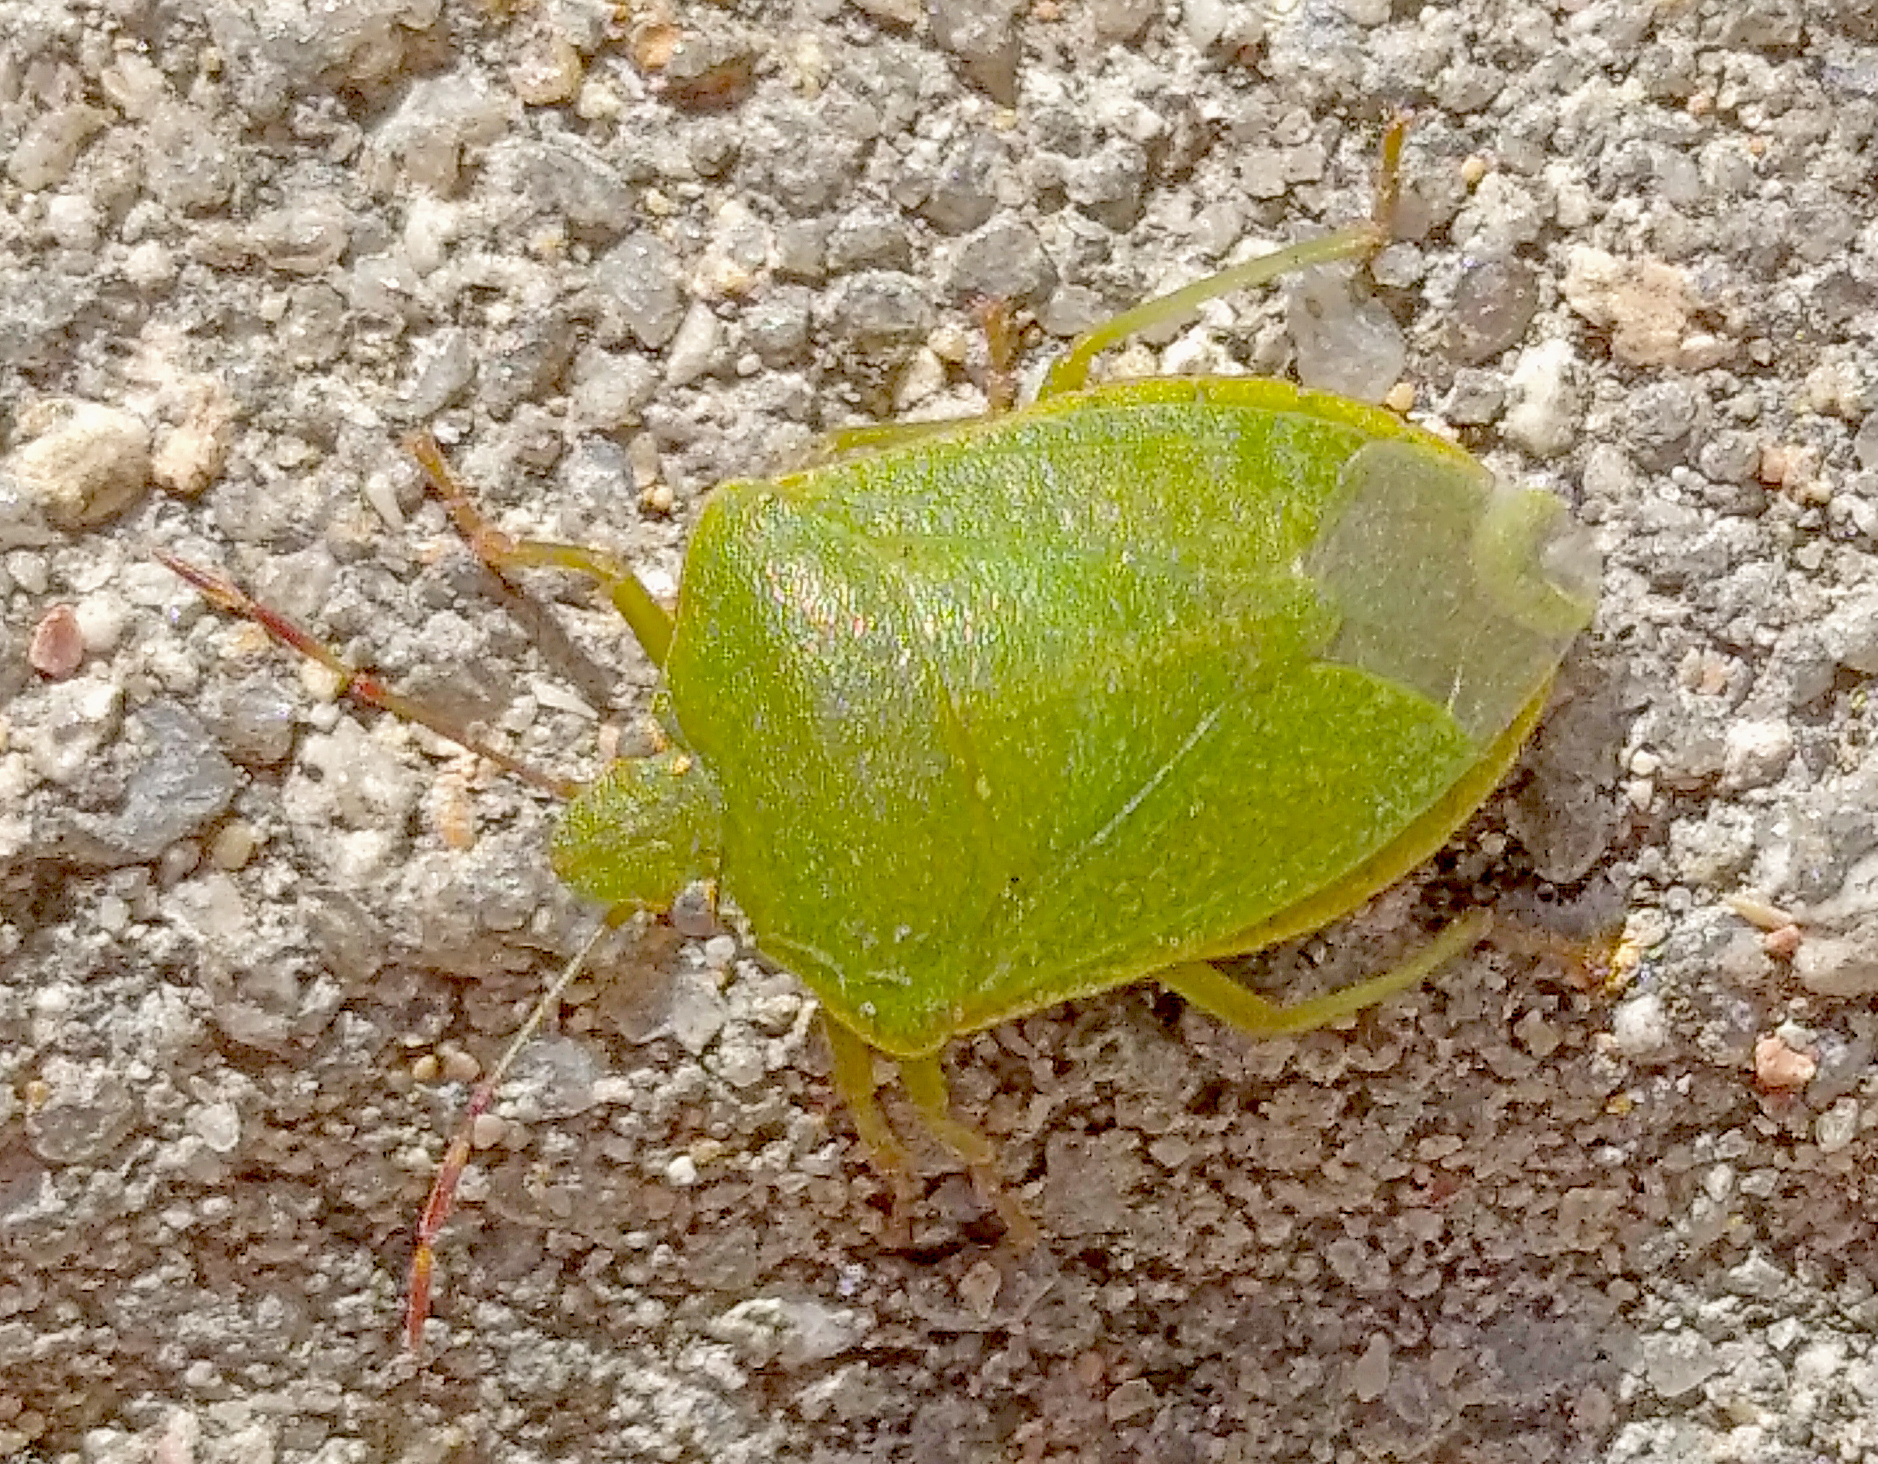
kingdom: Animalia
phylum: Arthropoda
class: Insecta
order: Hemiptera
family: Pentatomidae
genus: Nezara
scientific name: Nezara viridula
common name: Southern green stink bug
